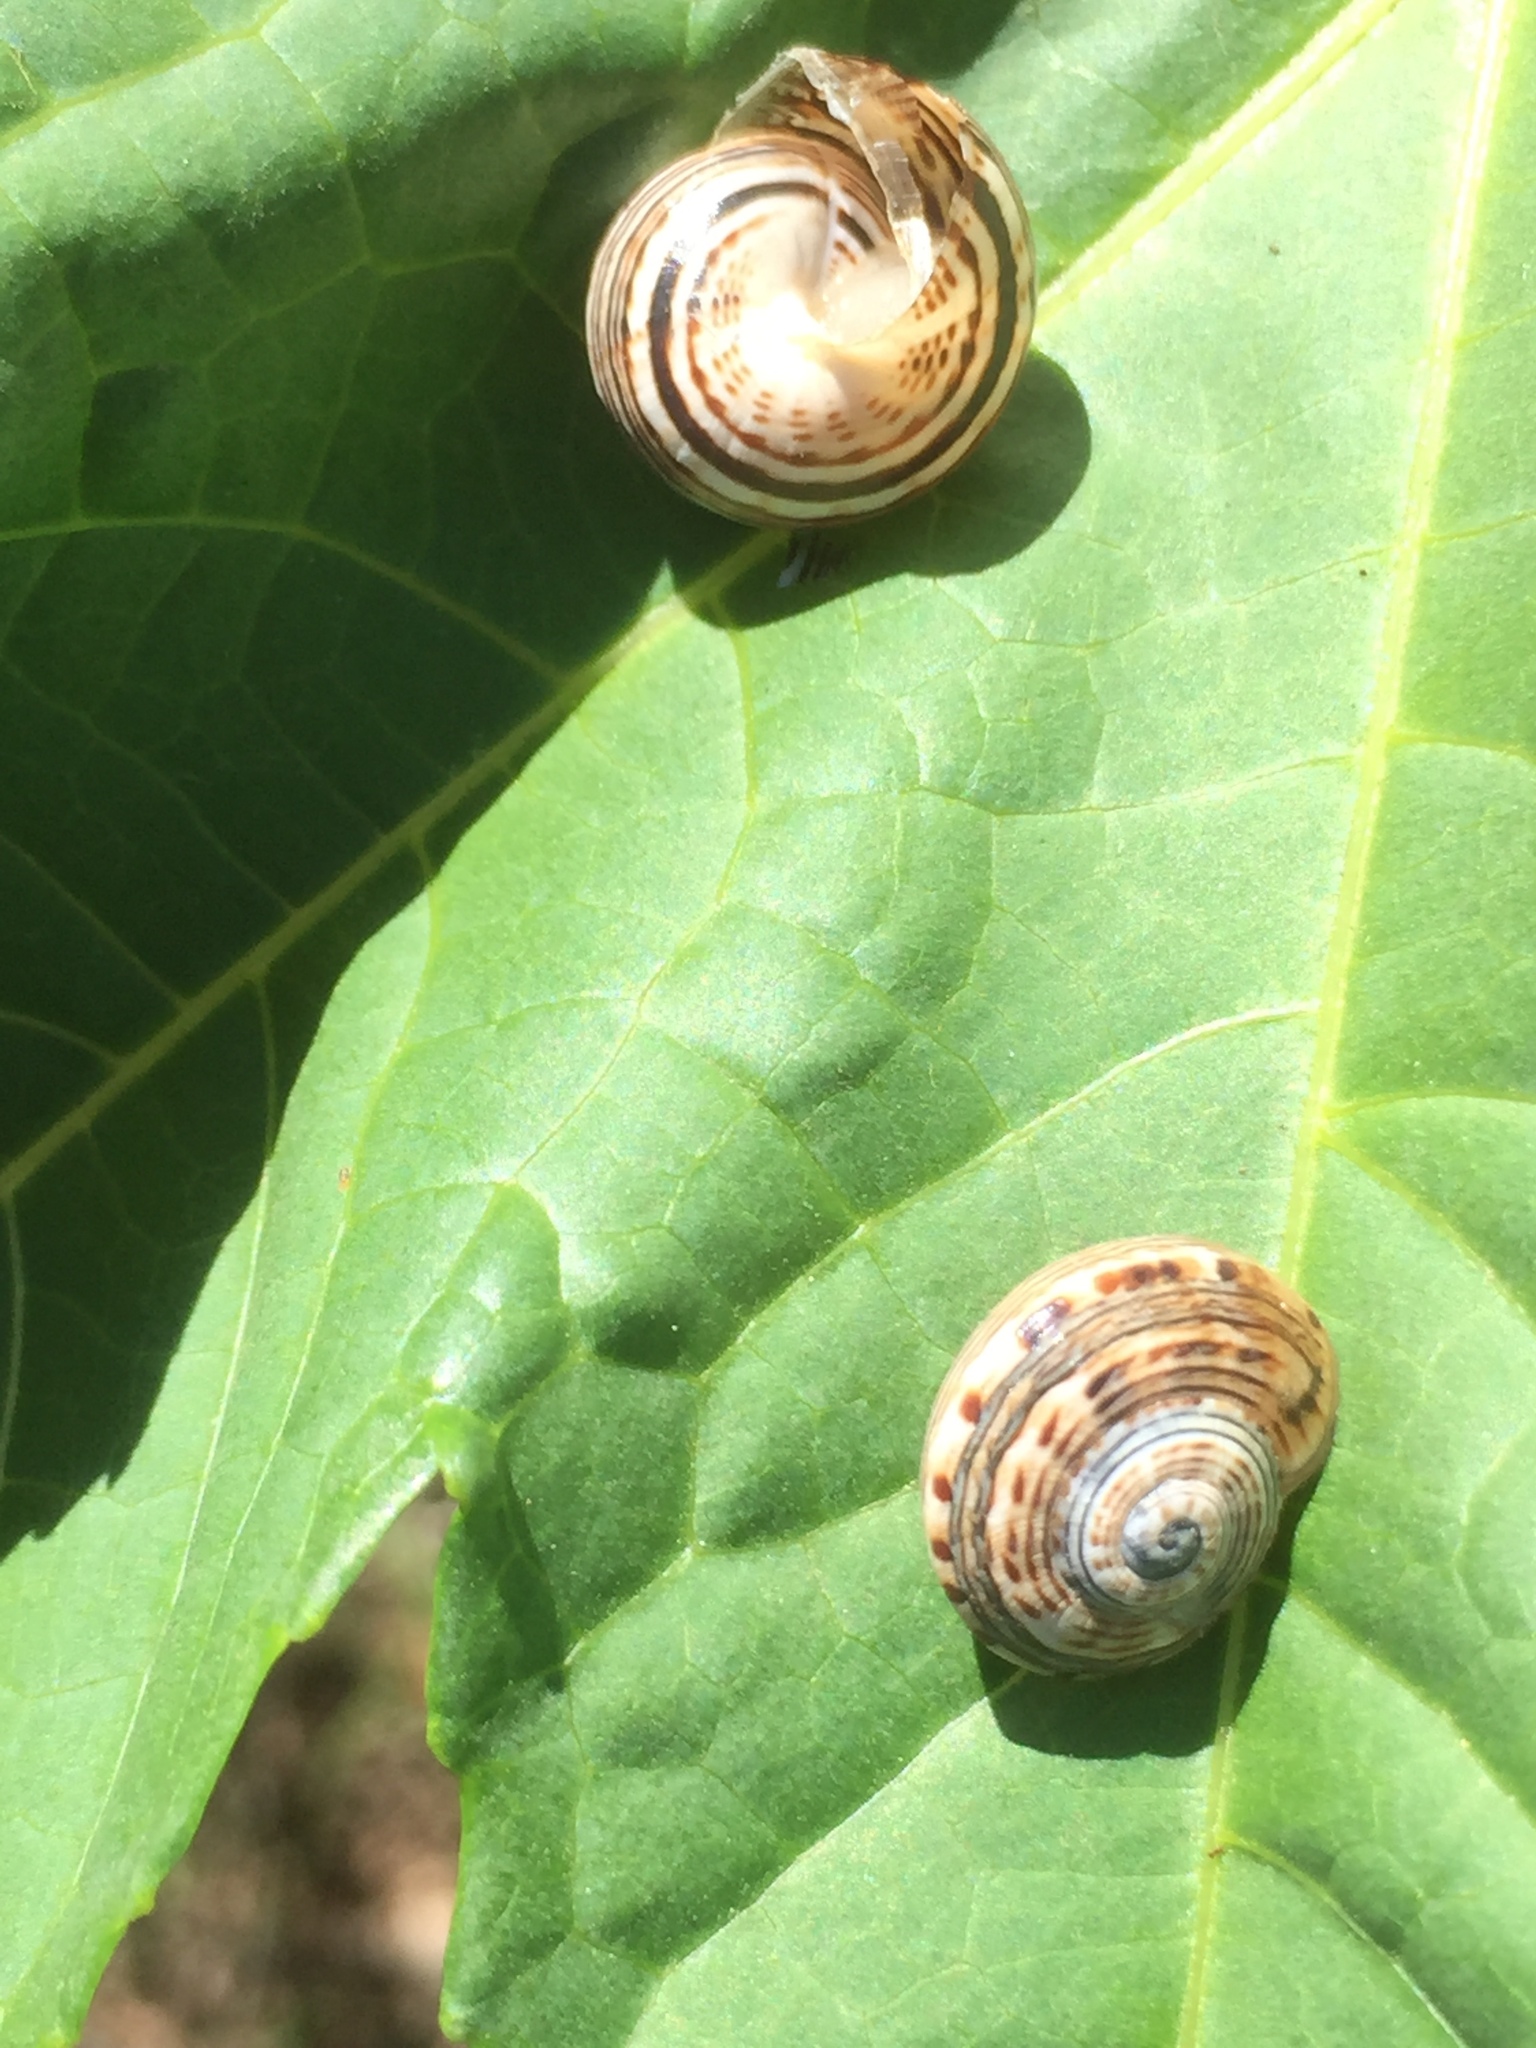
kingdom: Animalia
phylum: Mollusca
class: Gastropoda
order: Stylommatophora
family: Helicidae
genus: Theba
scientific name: Theba geminata
